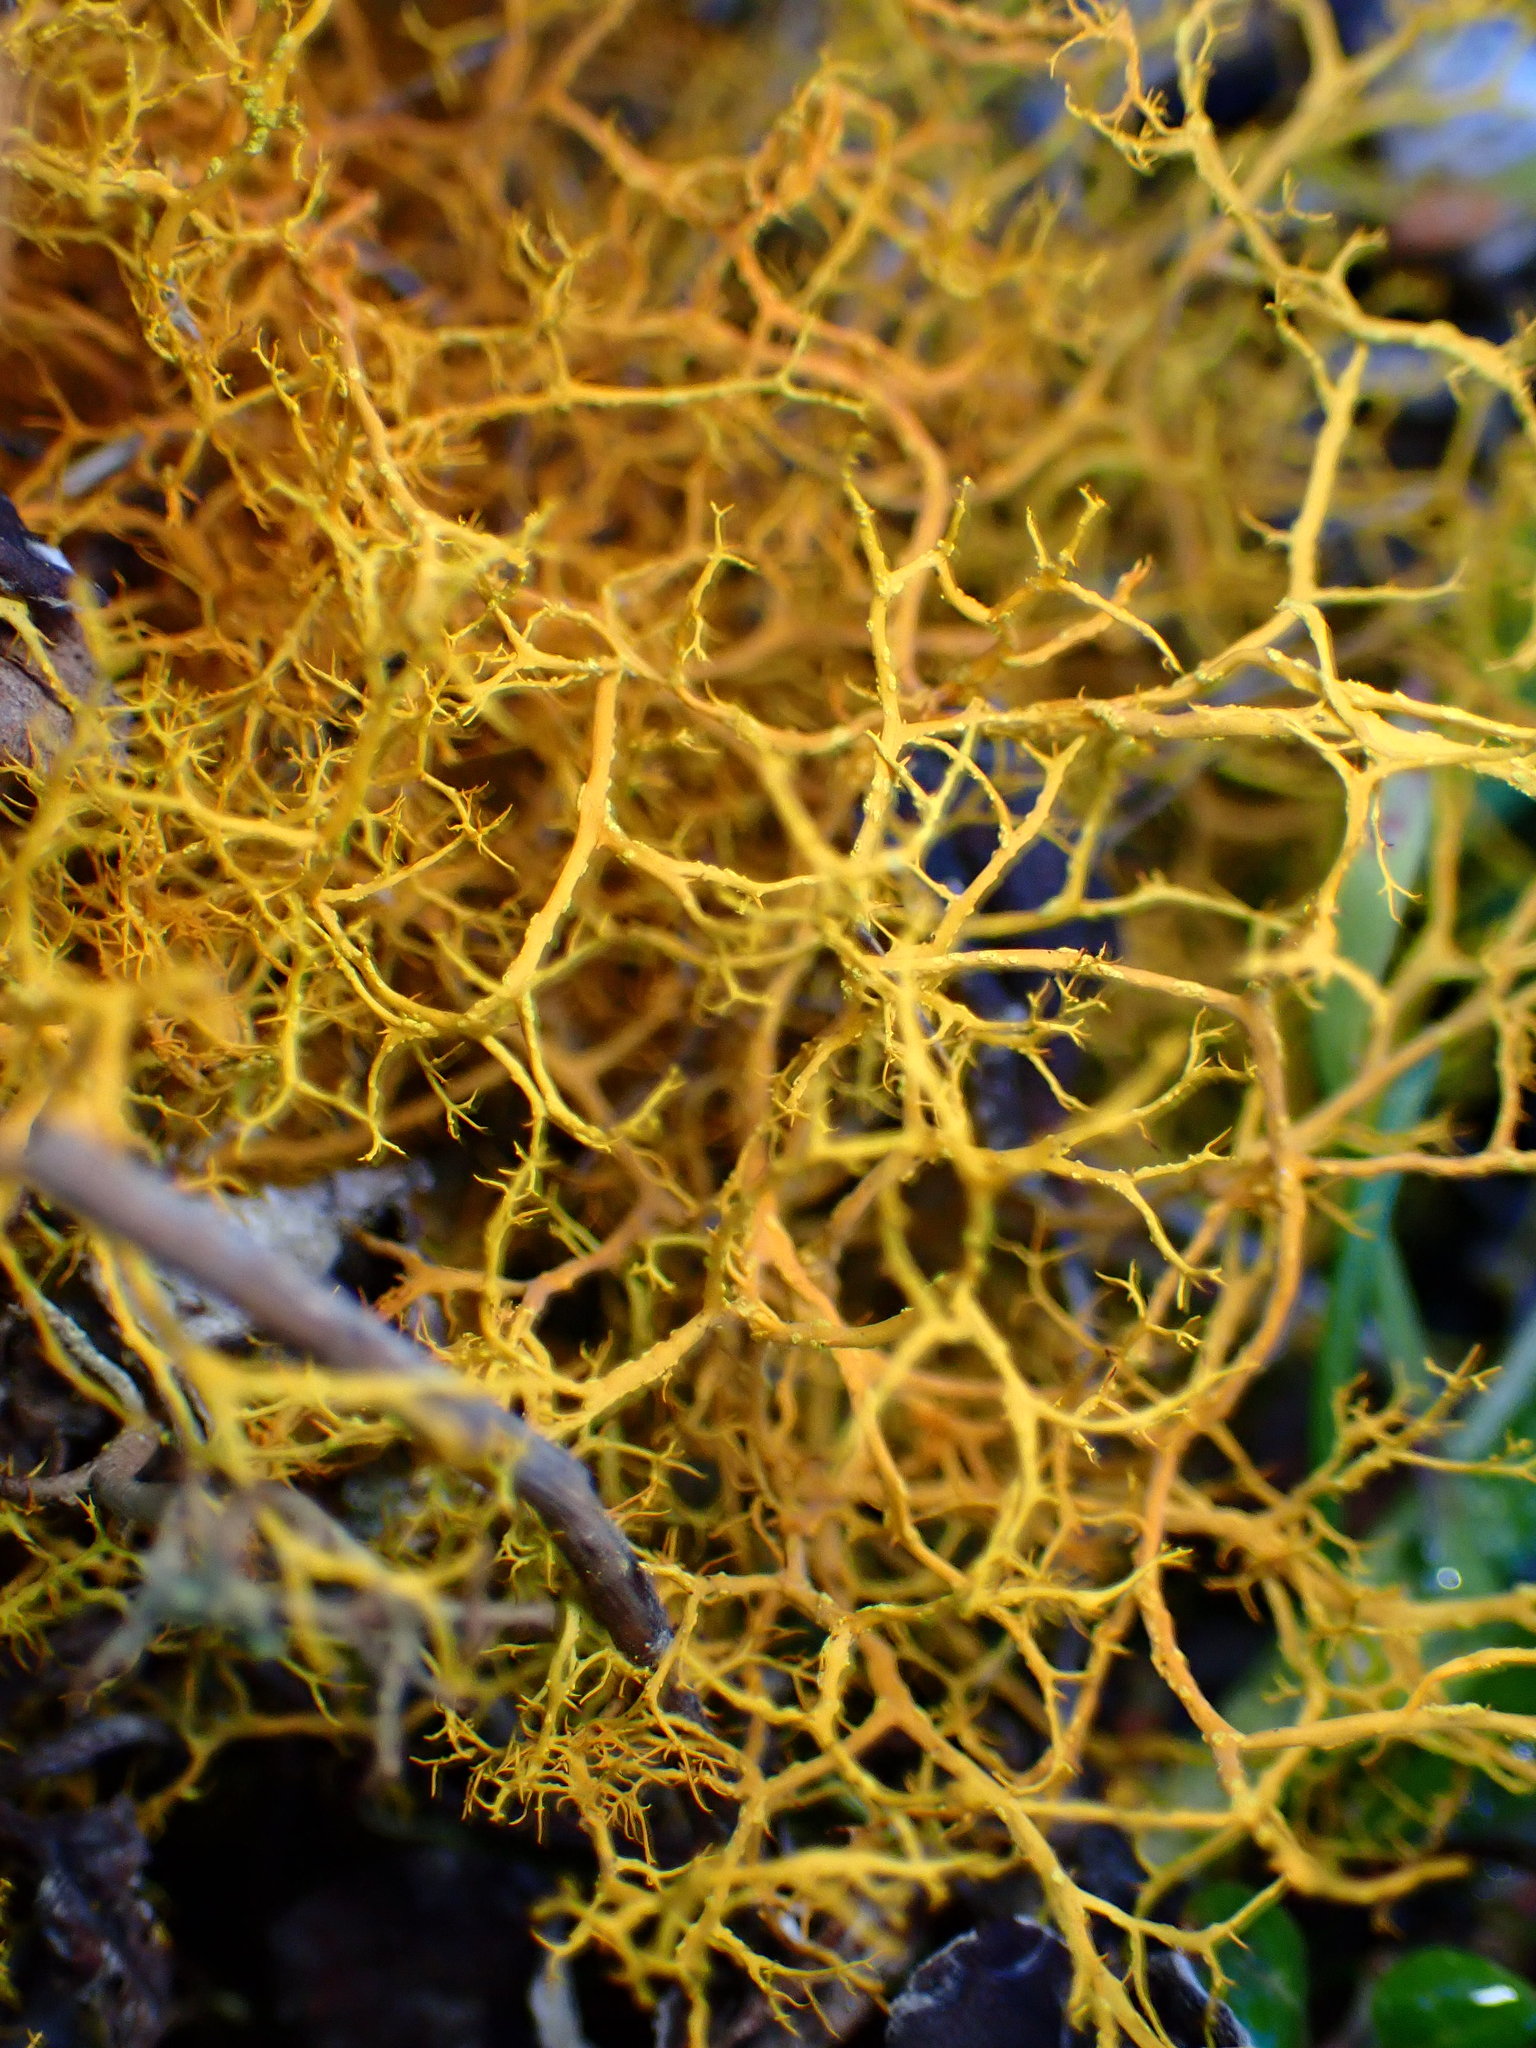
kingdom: Fungi
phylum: Ascomycota
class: Lecanoromycetes
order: Teloschistales
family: Teloschistaceae
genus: Teloschistes
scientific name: Teloschistes flavicans
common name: Golden hair-lichen
